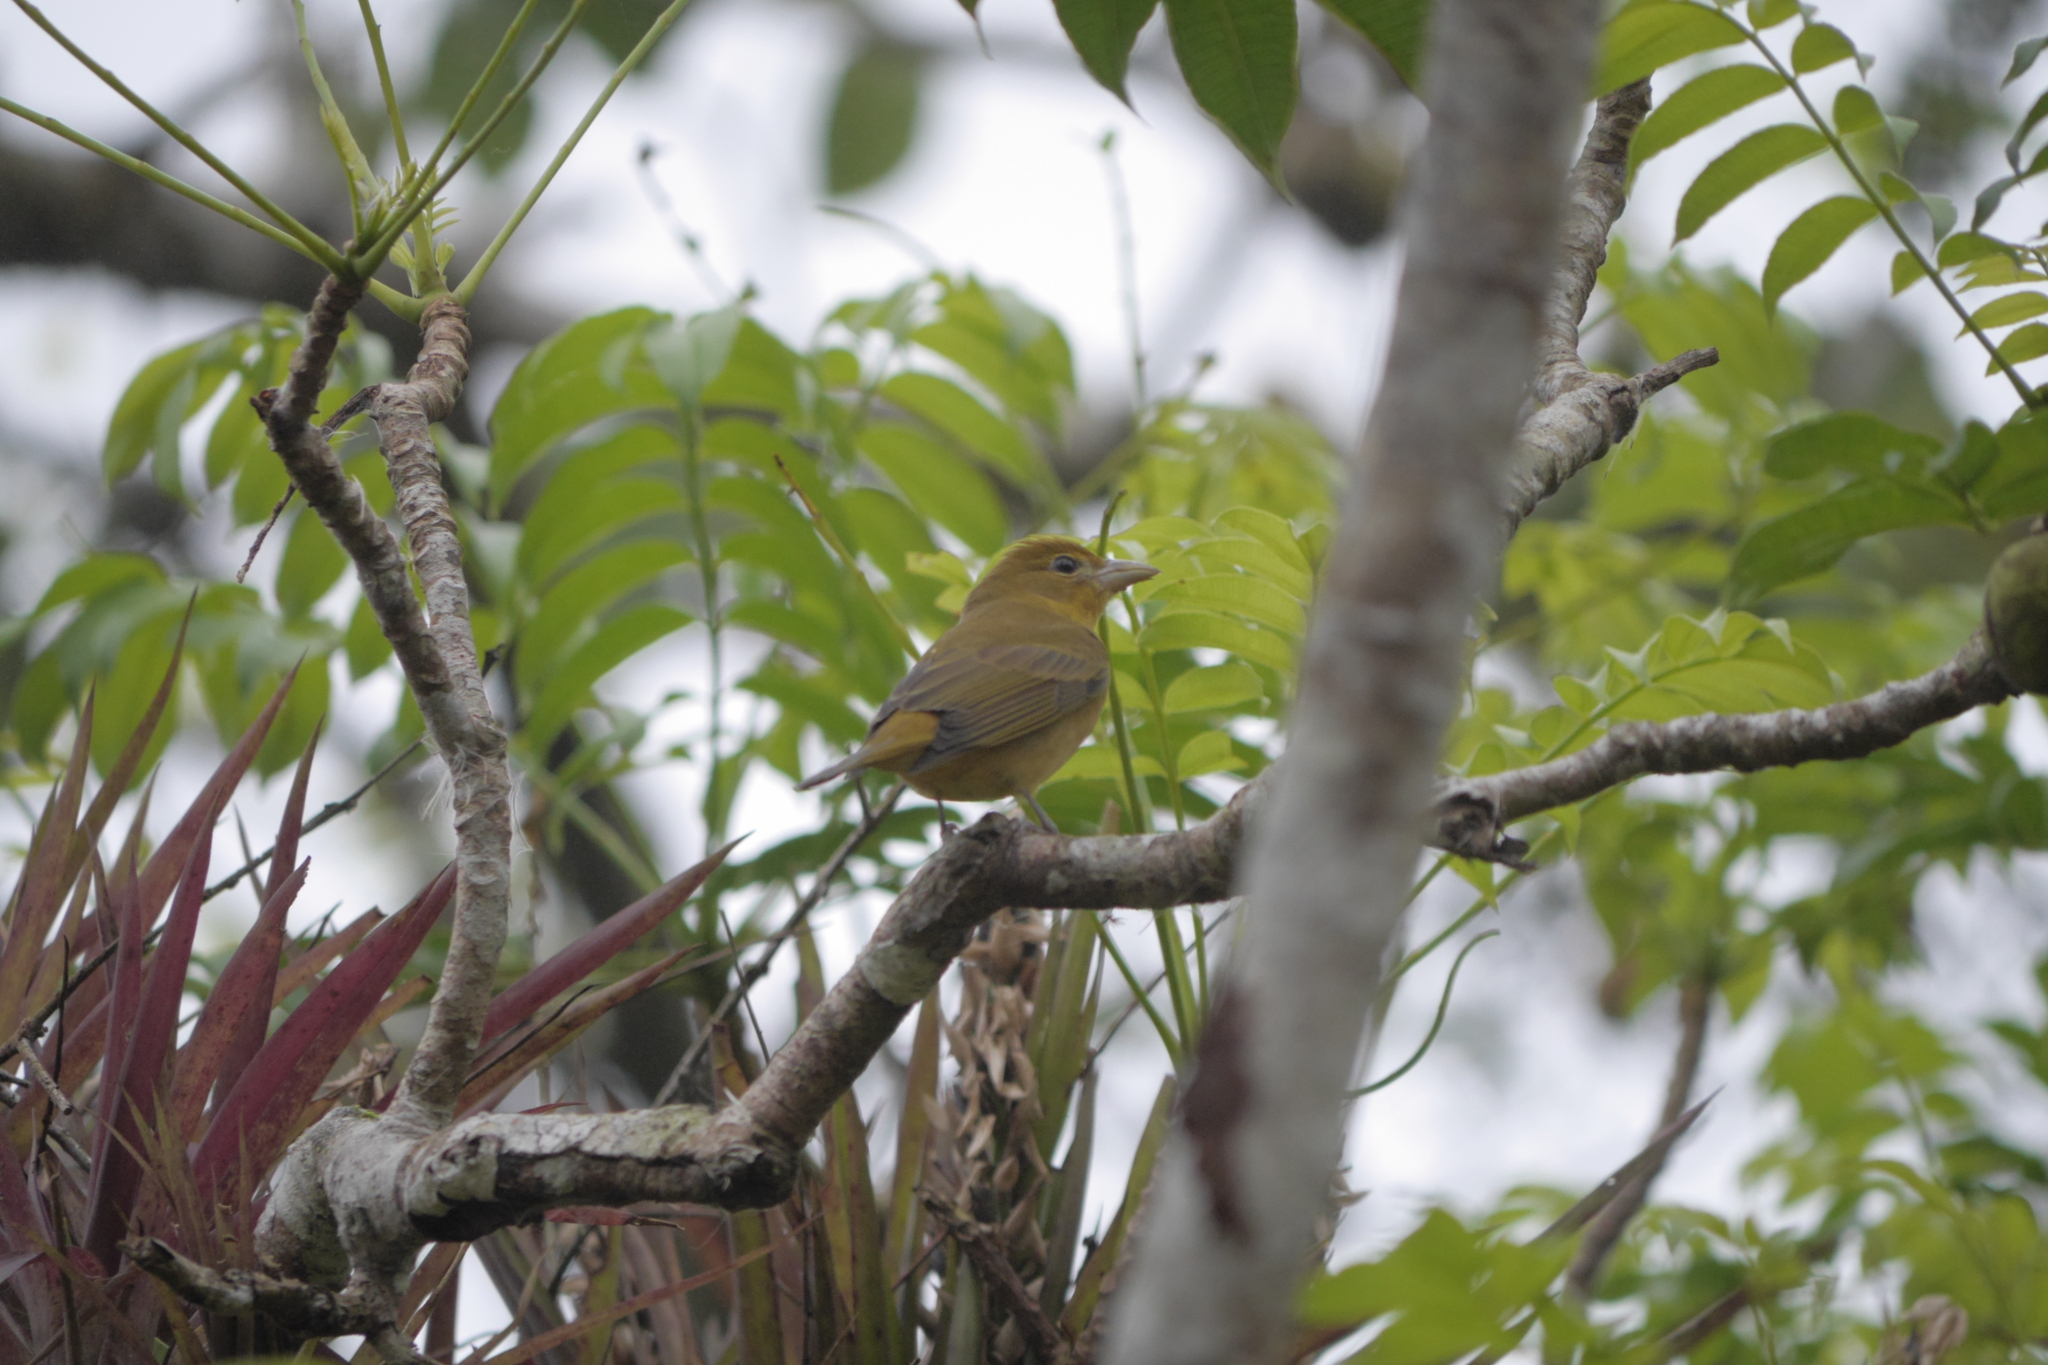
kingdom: Animalia
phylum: Chordata
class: Aves
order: Passeriformes
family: Cardinalidae
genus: Piranga
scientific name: Piranga rubra
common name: Summer tanager
